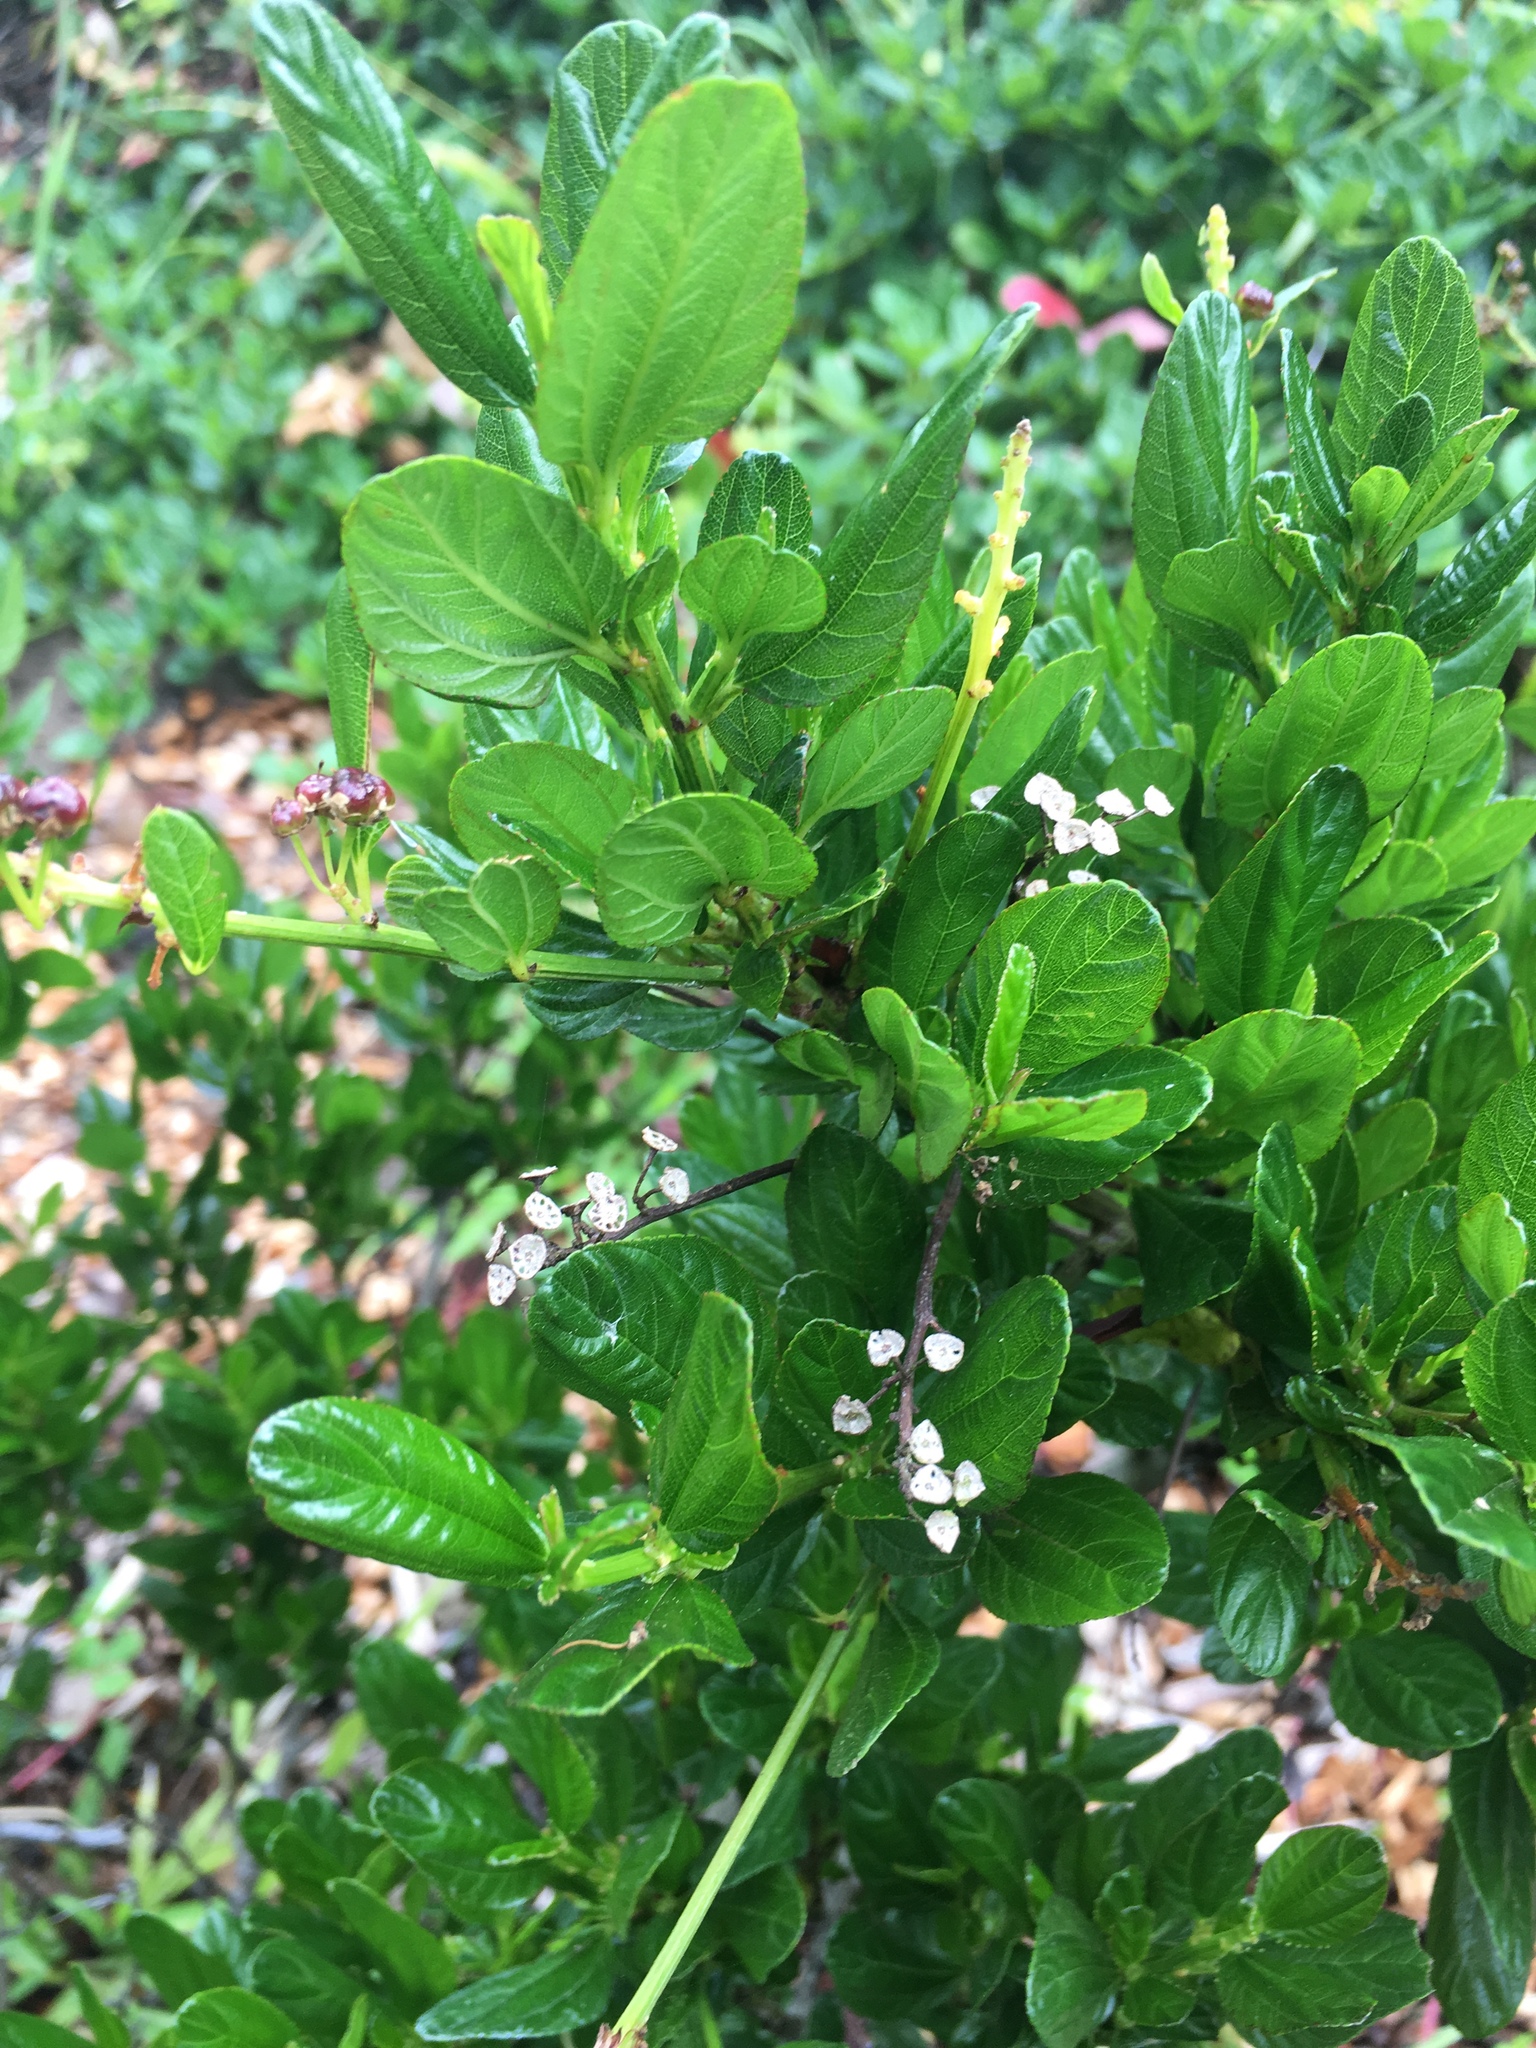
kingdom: Plantae
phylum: Tracheophyta
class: Magnoliopsida
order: Rosales
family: Rhamnaceae
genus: Ceanothus
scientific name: Ceanothus thyrsiflorus
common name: California-lilac
